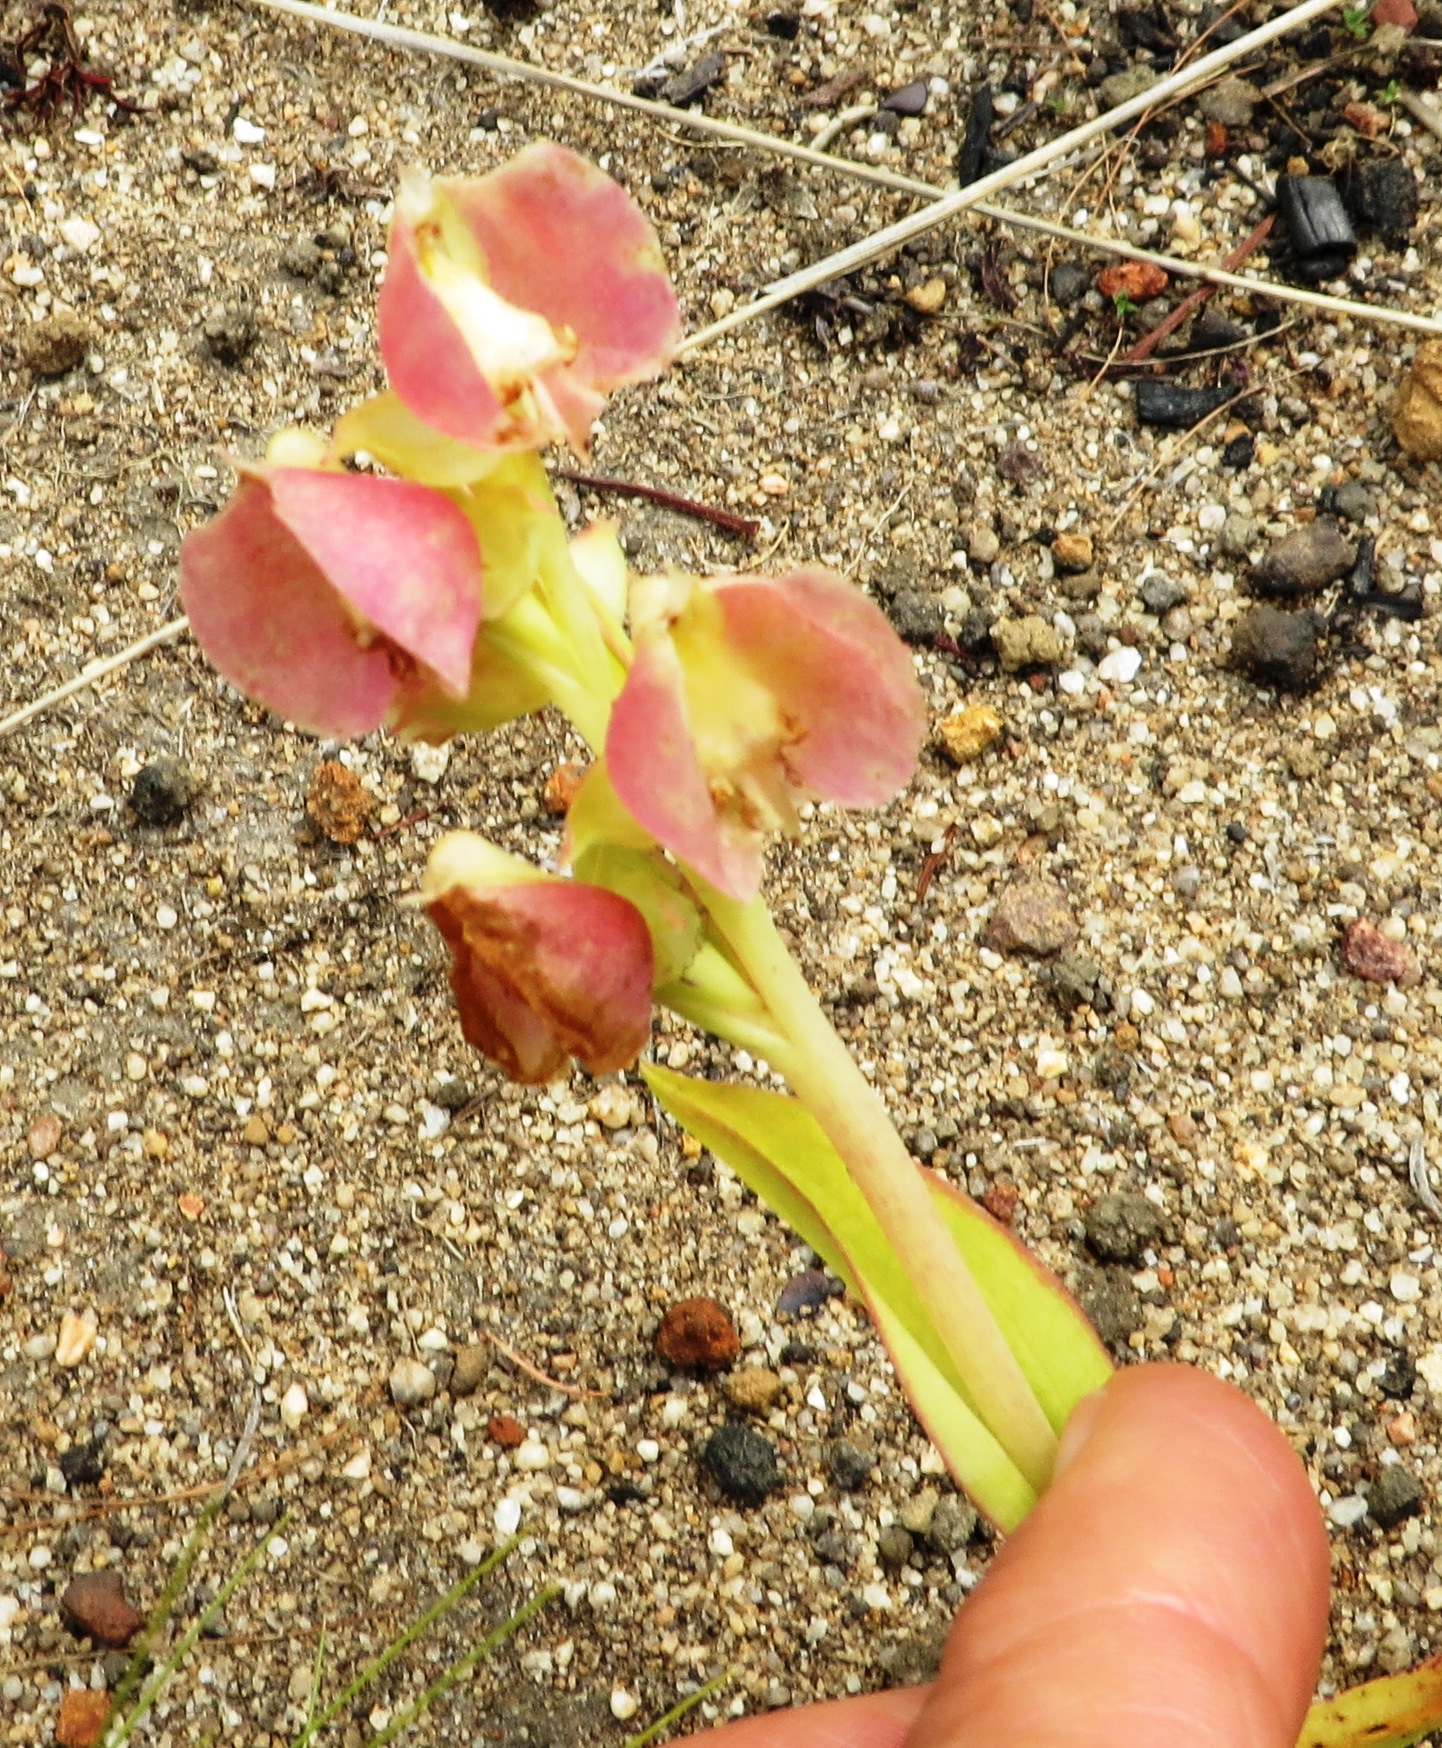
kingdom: Plantae
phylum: Tracheophyta
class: Liliopsida
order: Asparagales
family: Orchidaceae
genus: Pterygodium
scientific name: Pterygodium catholicum
